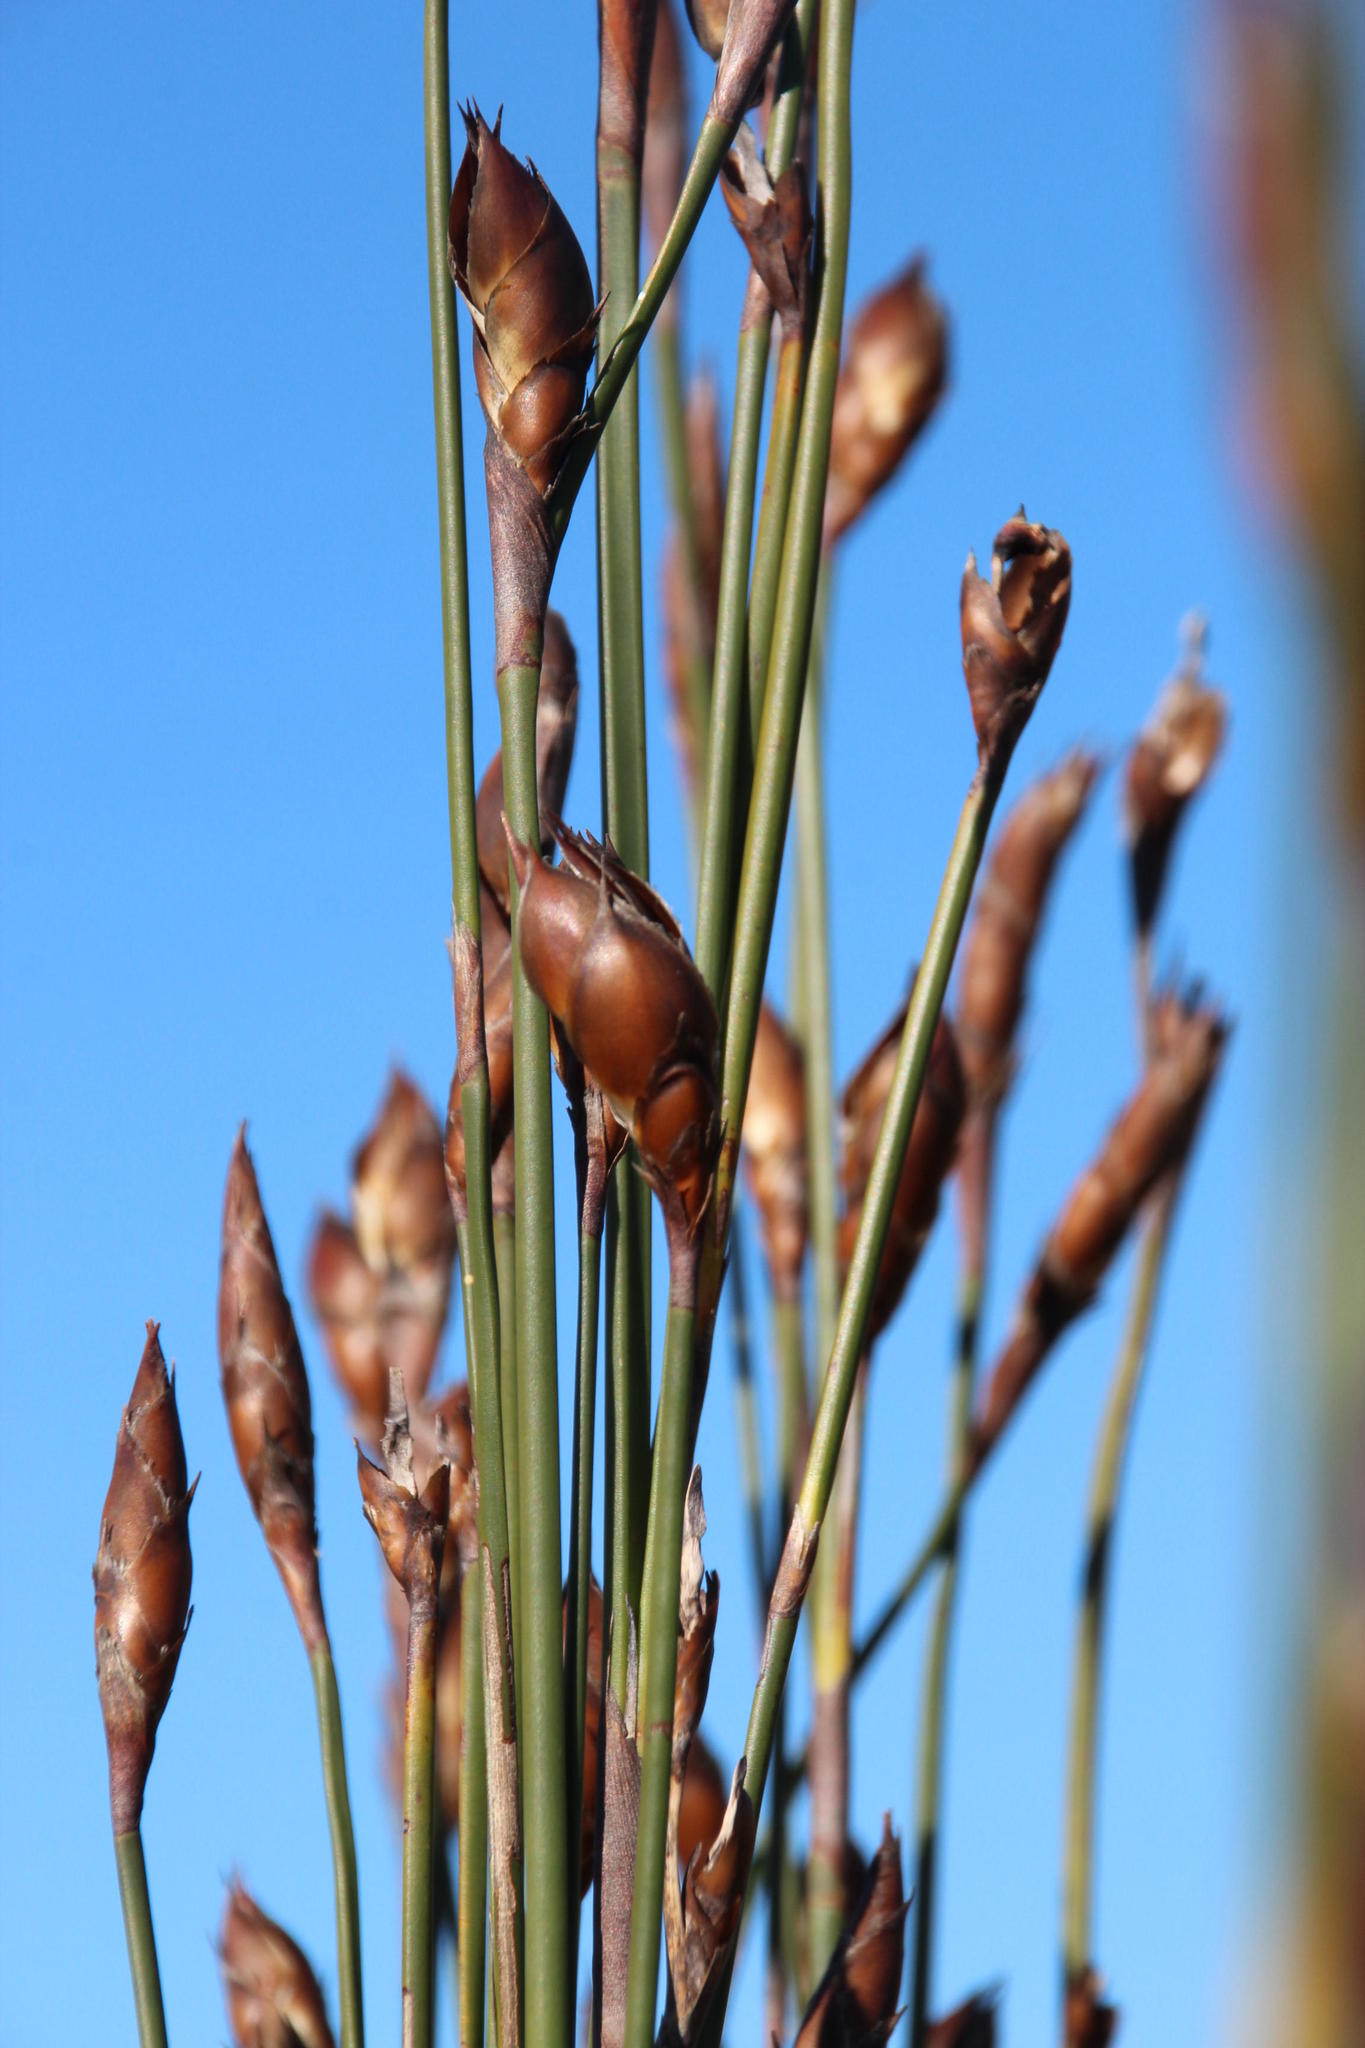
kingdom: Plantae
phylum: Tracheophyta
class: Liliopsida
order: Poales
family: Restionaceae
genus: Cannomois
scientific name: Cannomois congesta
